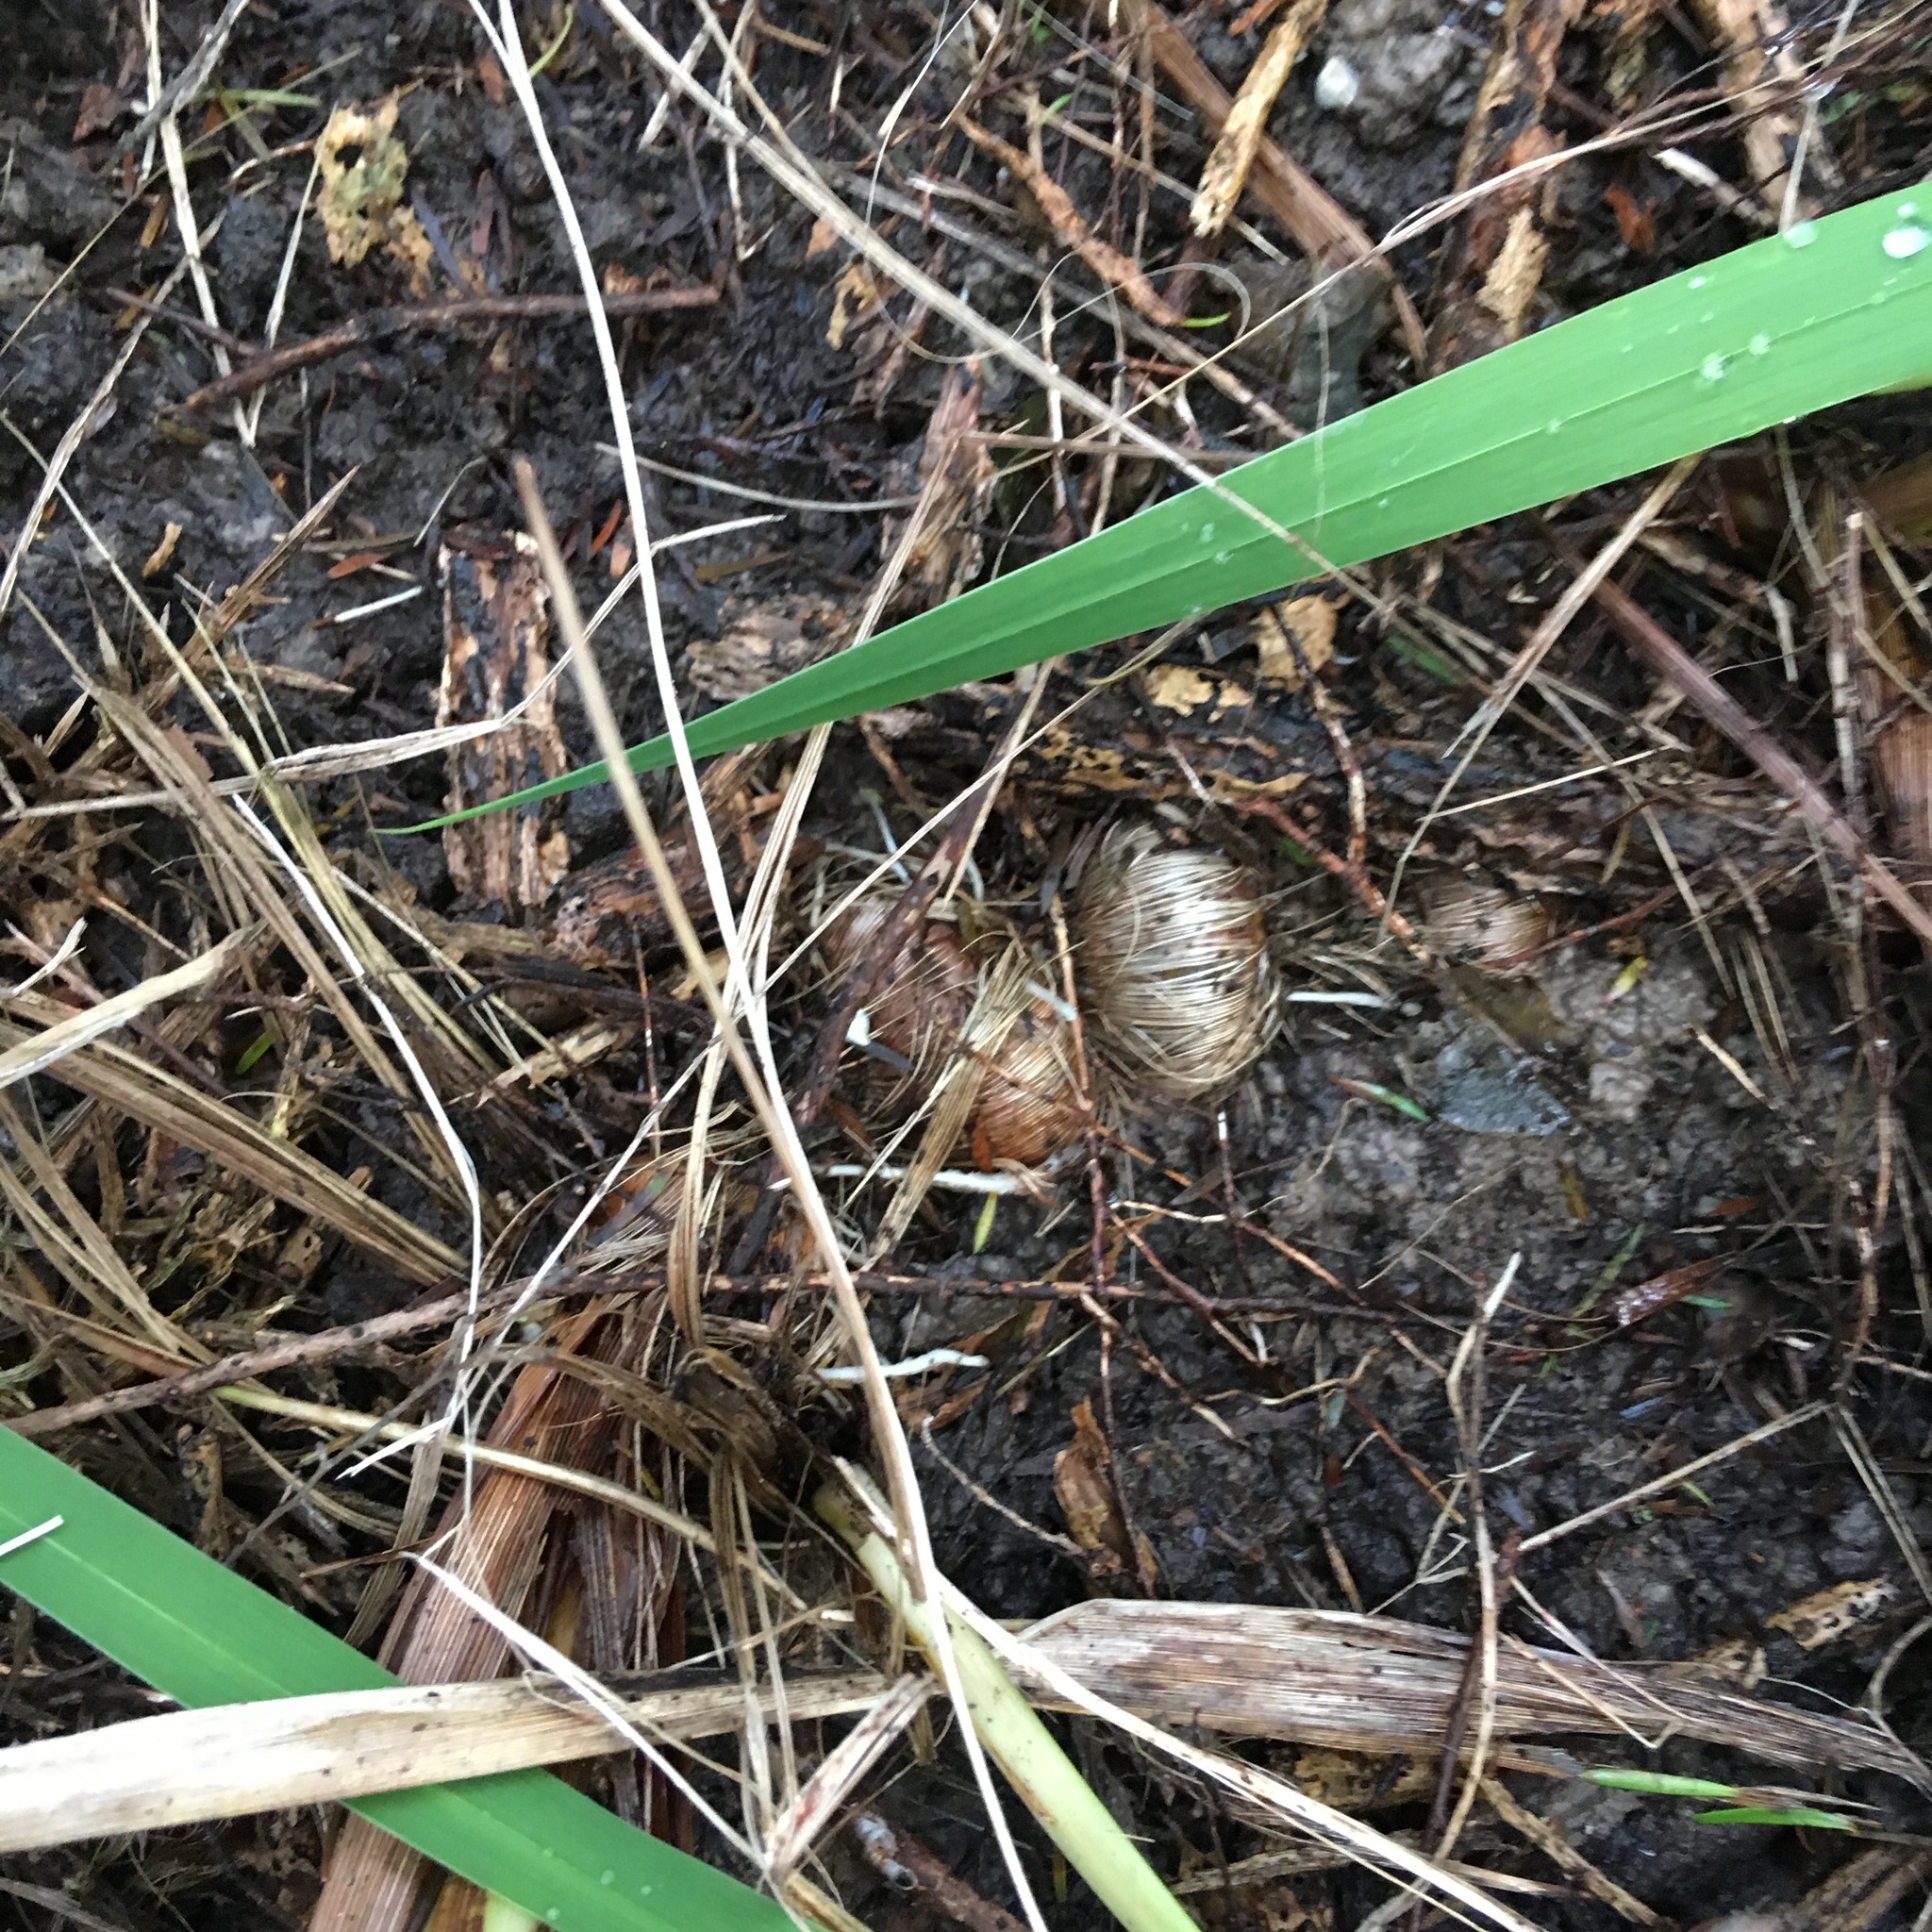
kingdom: Plantae
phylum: Tracheophyta
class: Liliopsida
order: Asparagales
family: Iridaceae
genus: Watsonia
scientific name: Watsonia meriana
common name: Bulbil bugle-lily
